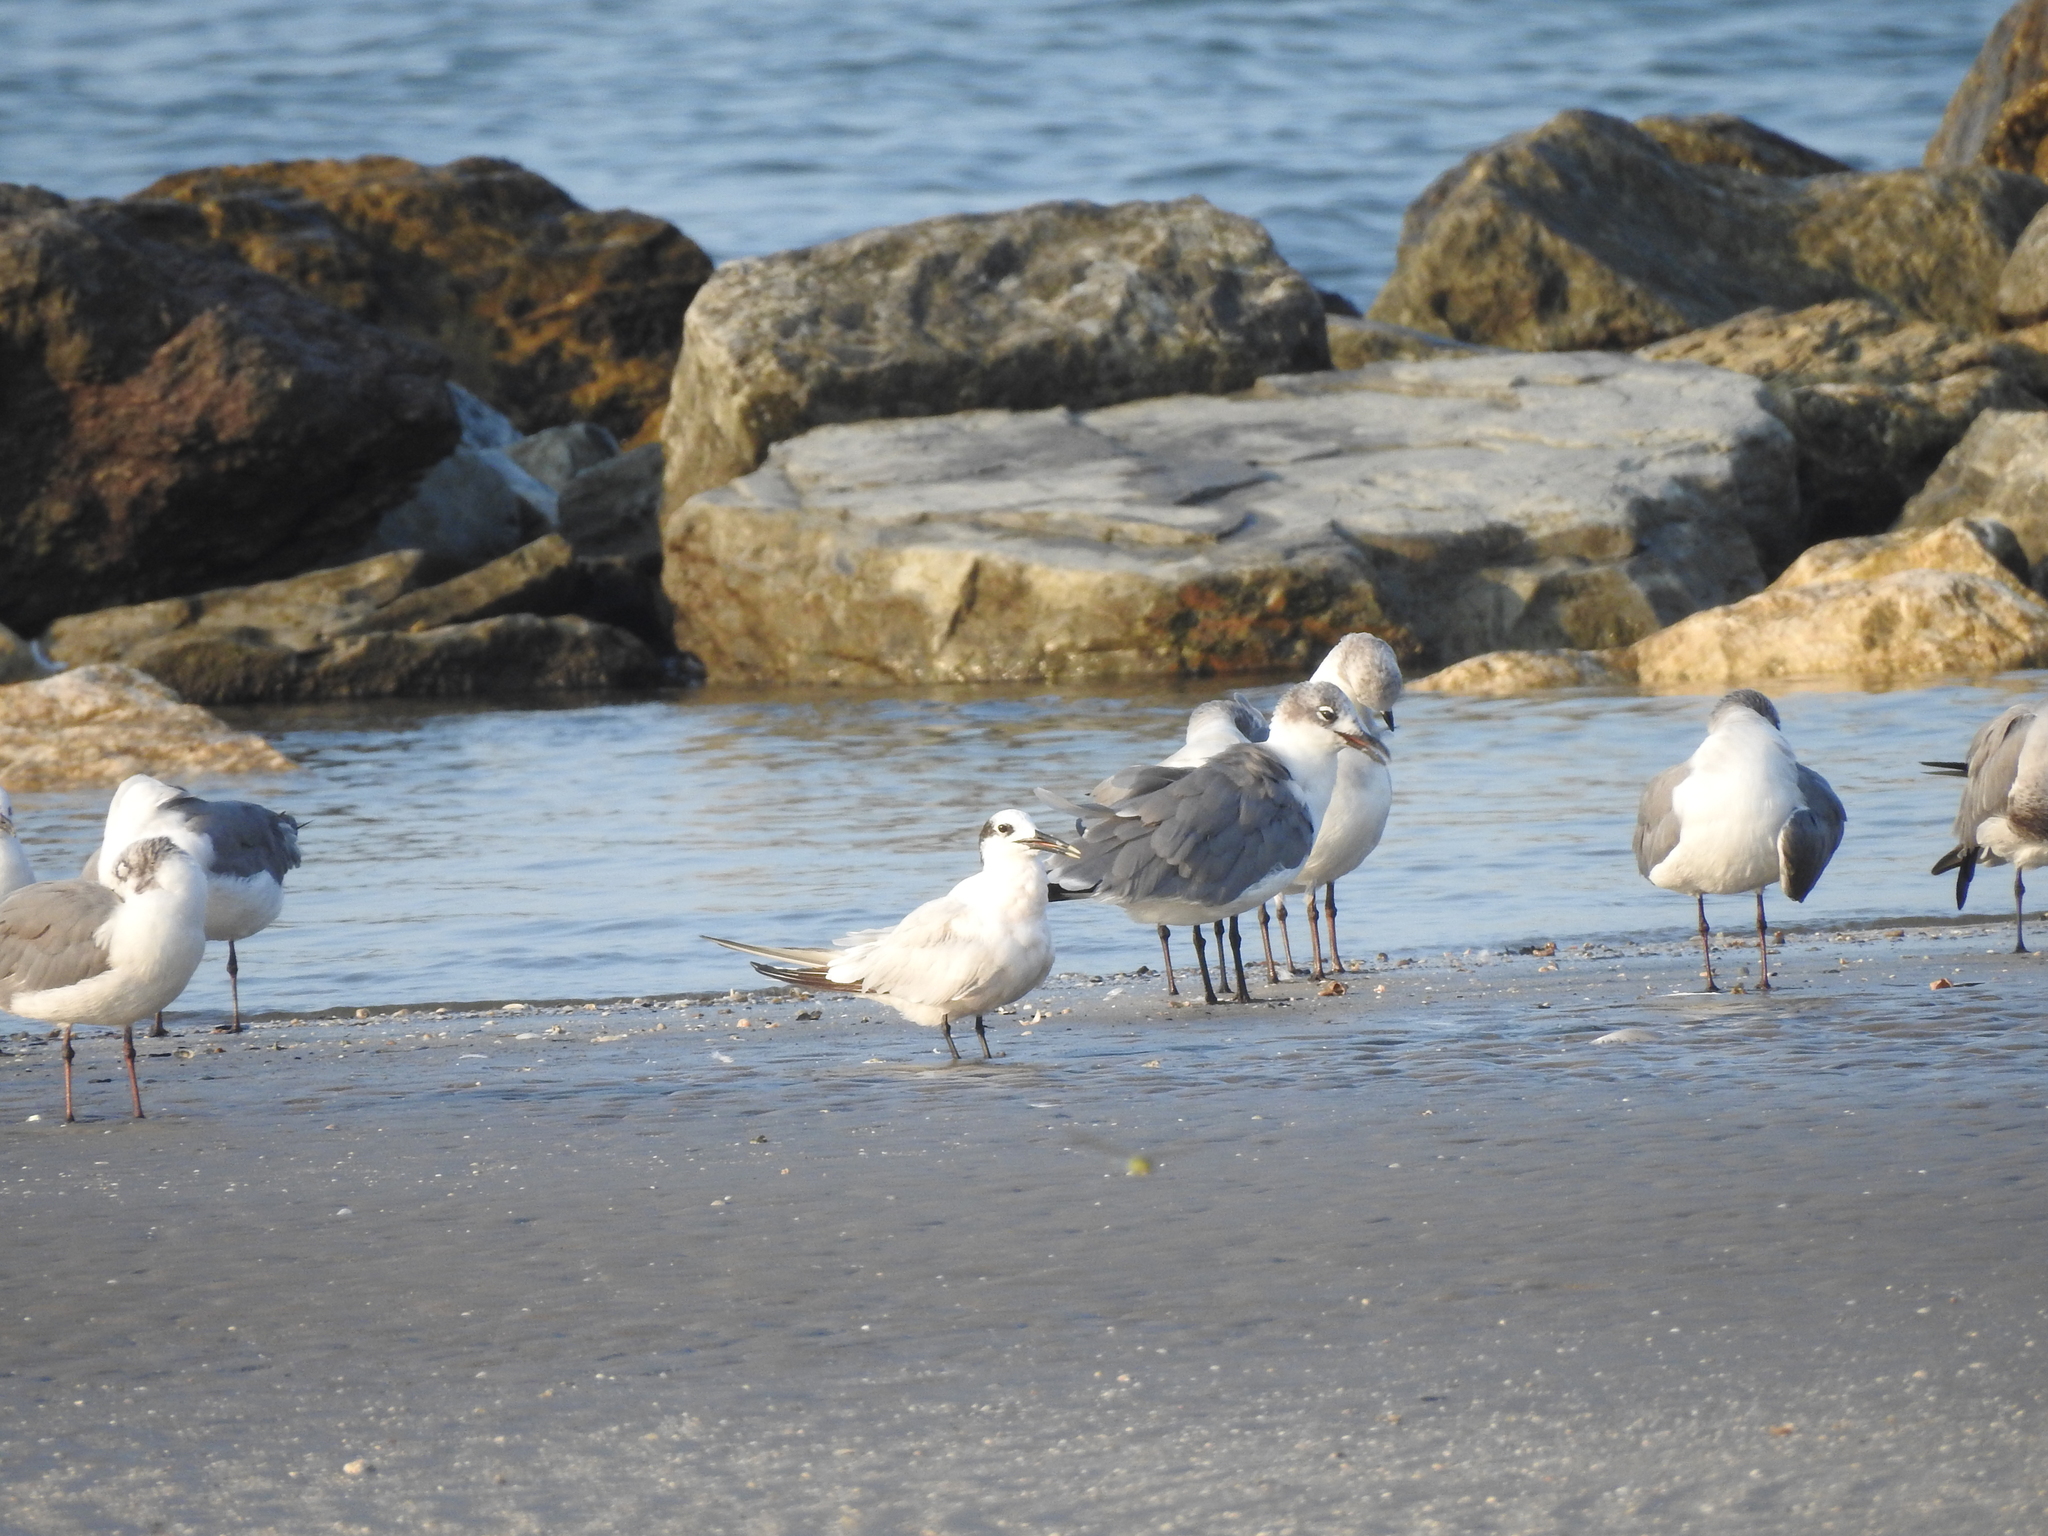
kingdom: Animalia
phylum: Chordata
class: Aves
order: Charadriiformes
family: Laridae
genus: Thalasseus
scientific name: Thalasseus sandvicensis
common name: Sandwich tern
